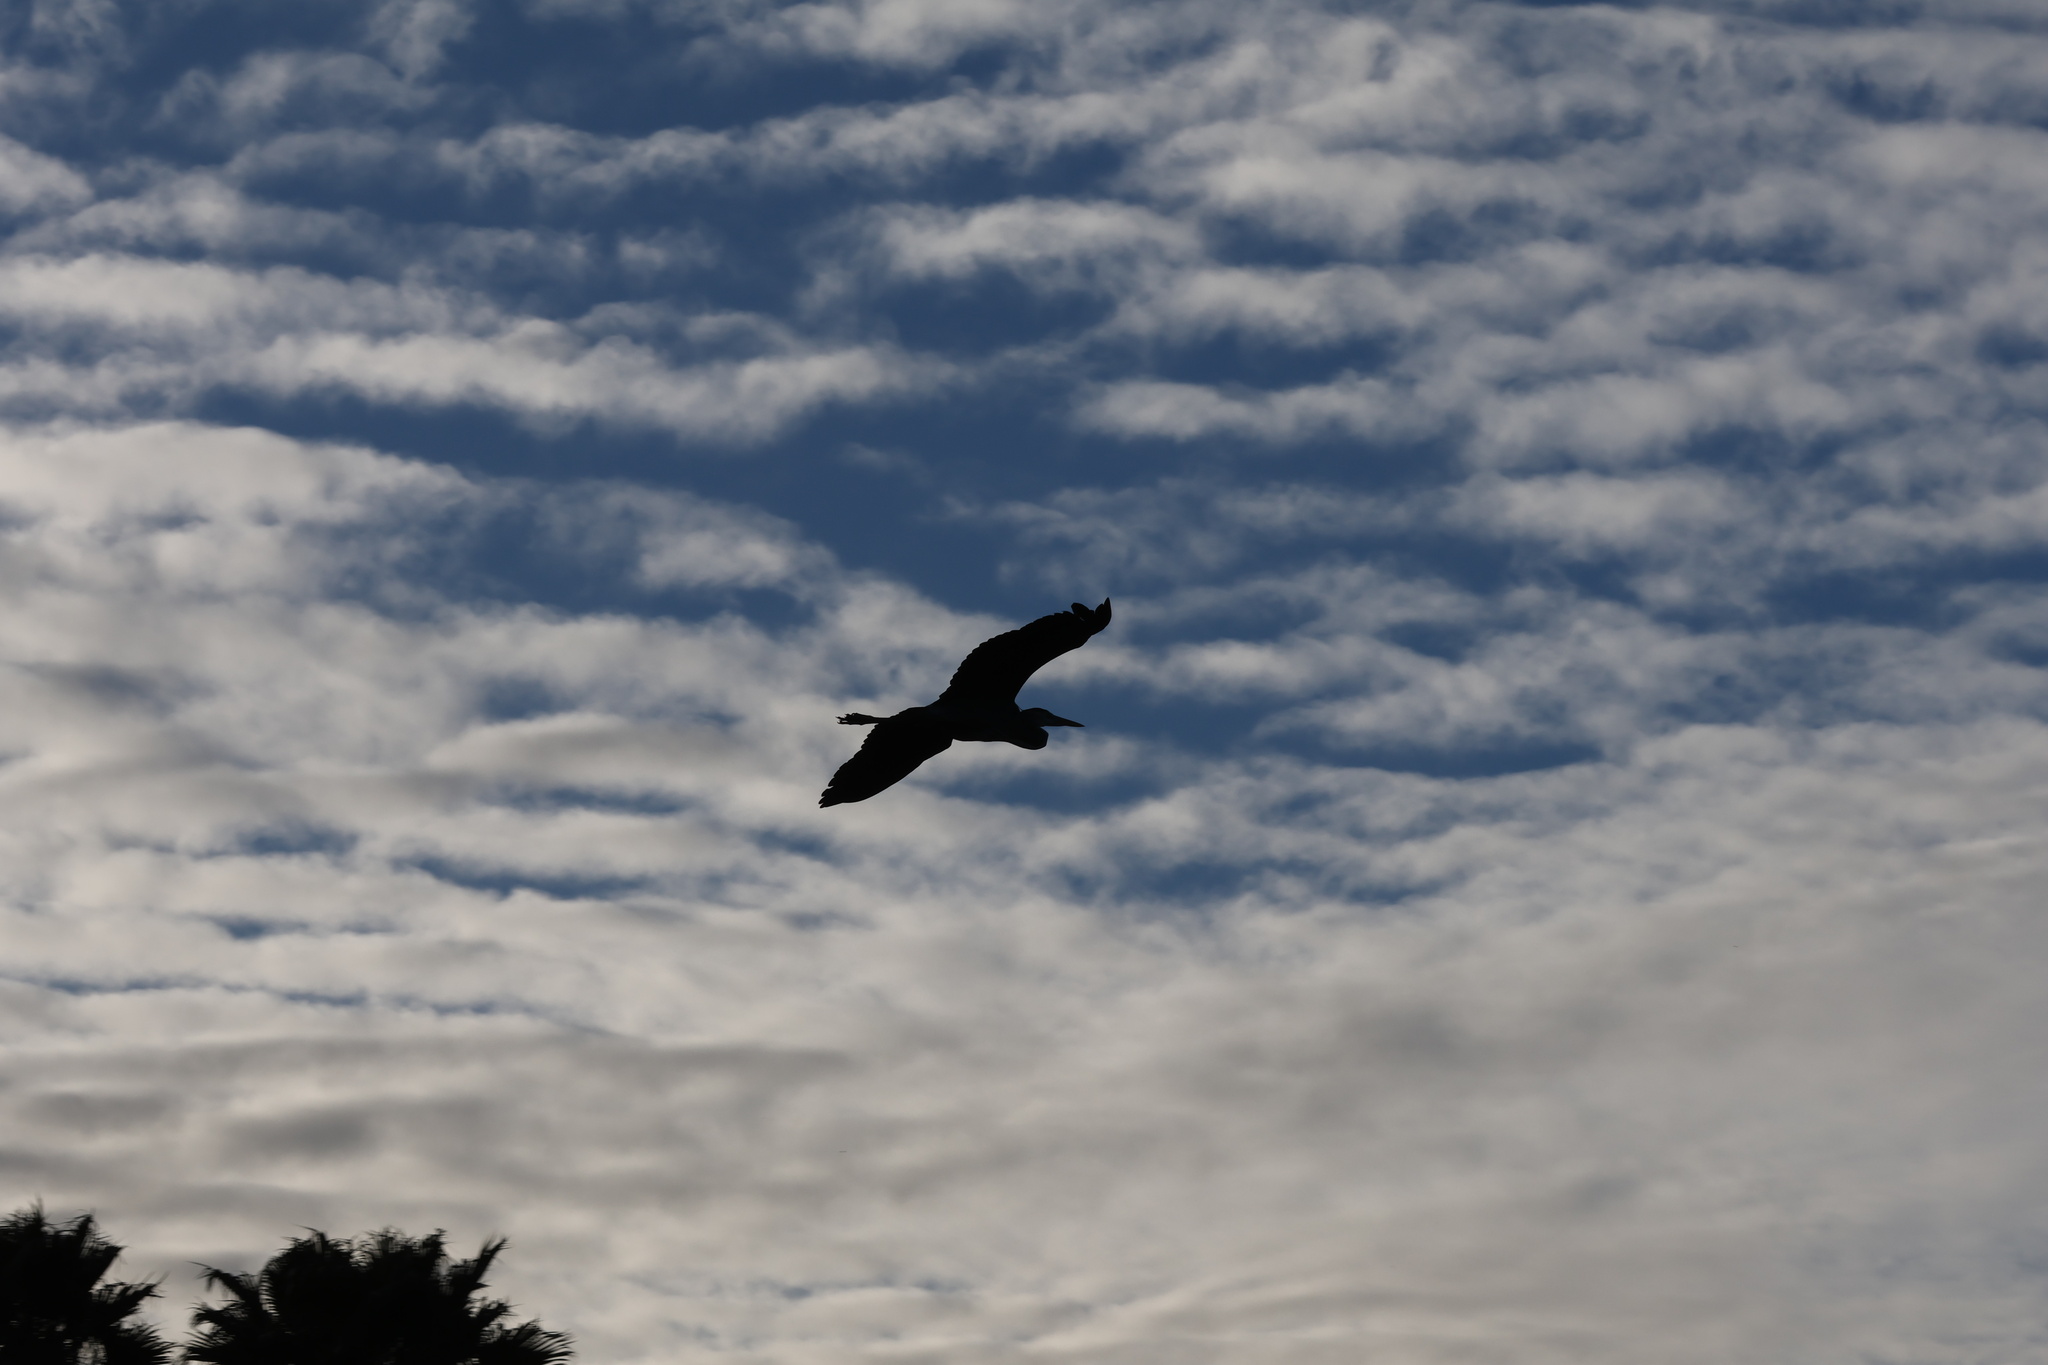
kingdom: Animalia
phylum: Chordata
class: Aves
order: Pelecaniformes
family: Ardeidae
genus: Ardea
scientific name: Ardea herodias
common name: Great blue heron
